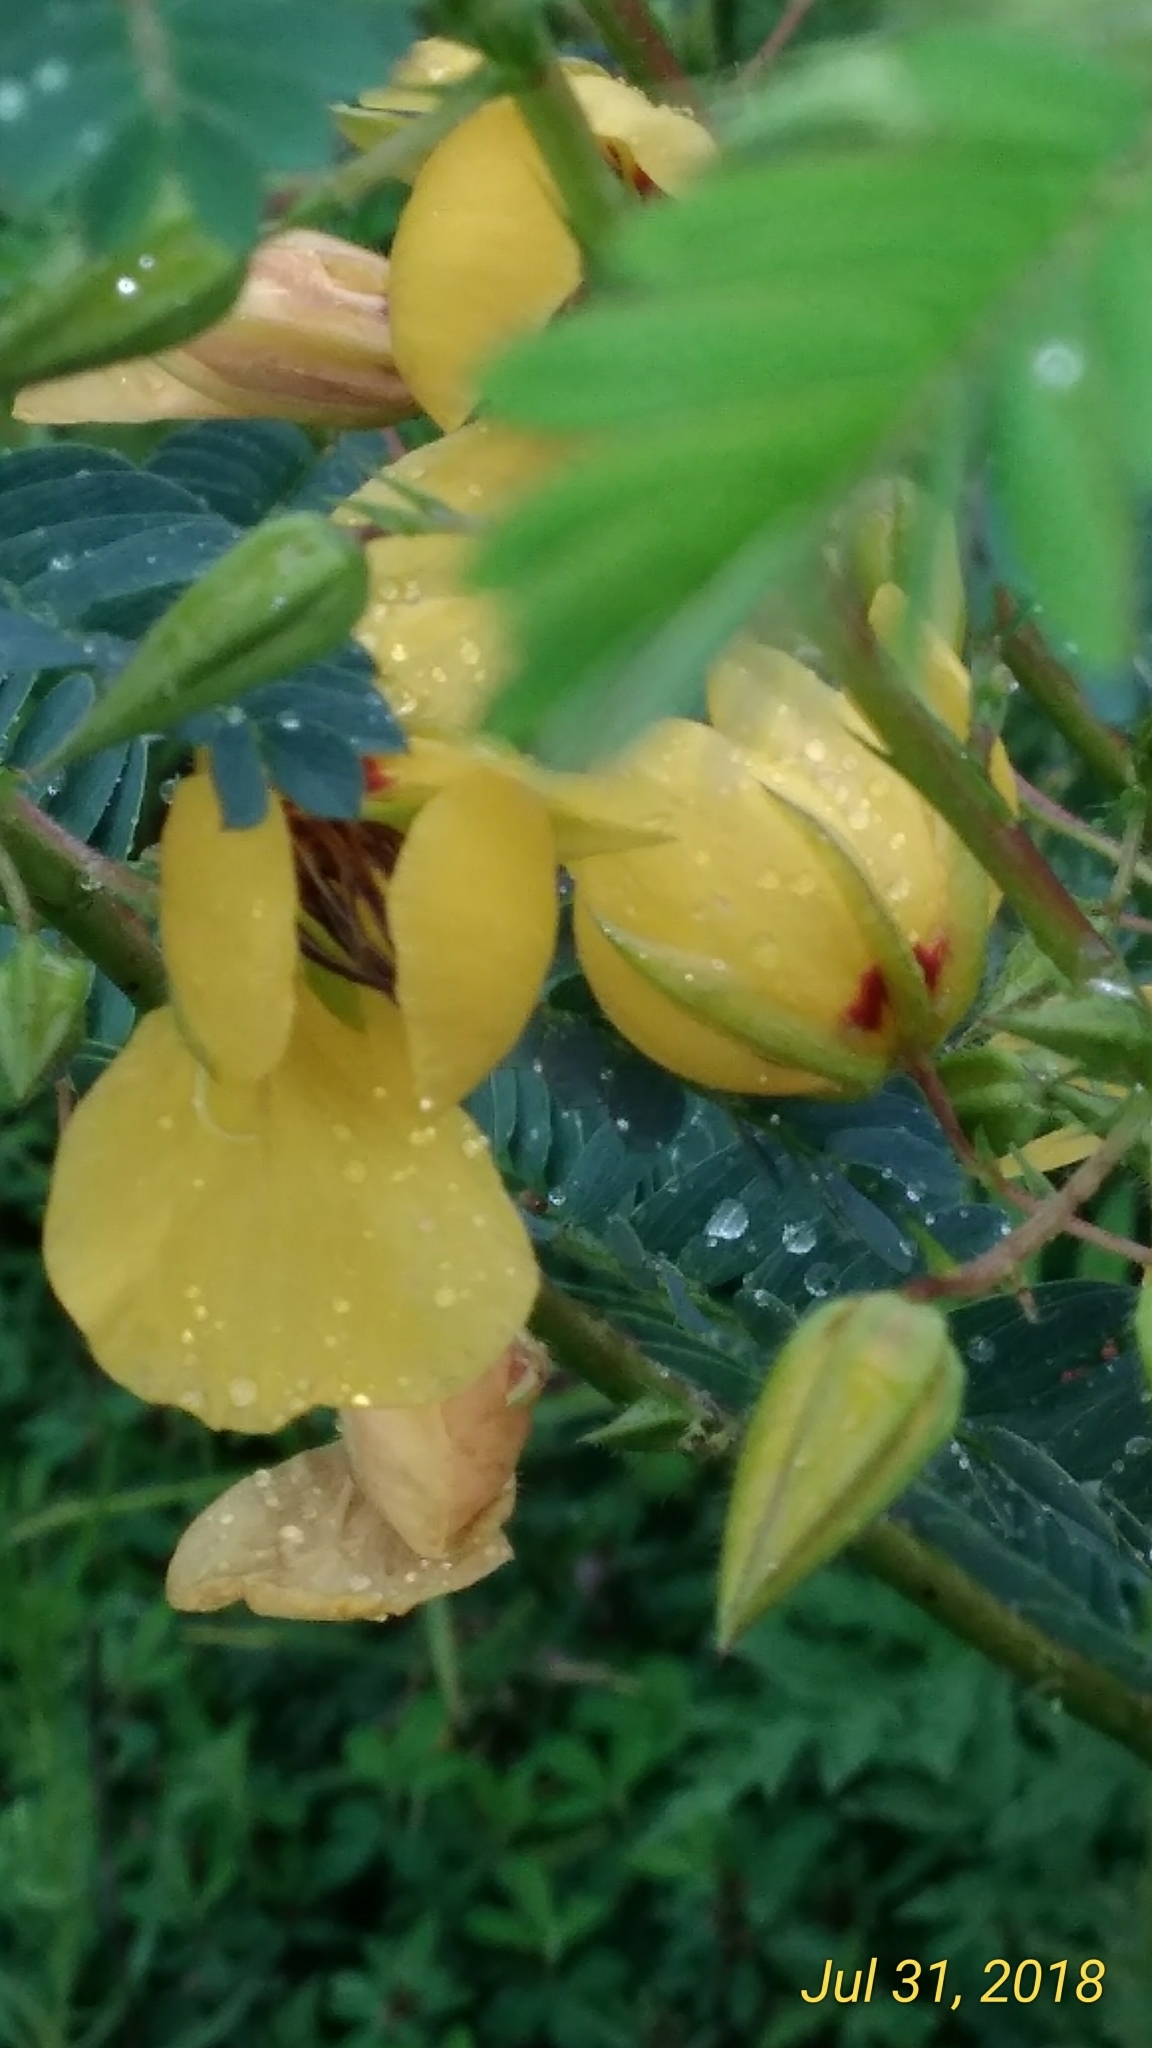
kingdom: Plantae
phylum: Tracheophyta
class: Magnoliopsida
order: Fabales
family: Fabaceae
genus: Chamaecrista
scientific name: Chamaecrista fasciculata
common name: Golden cassia
